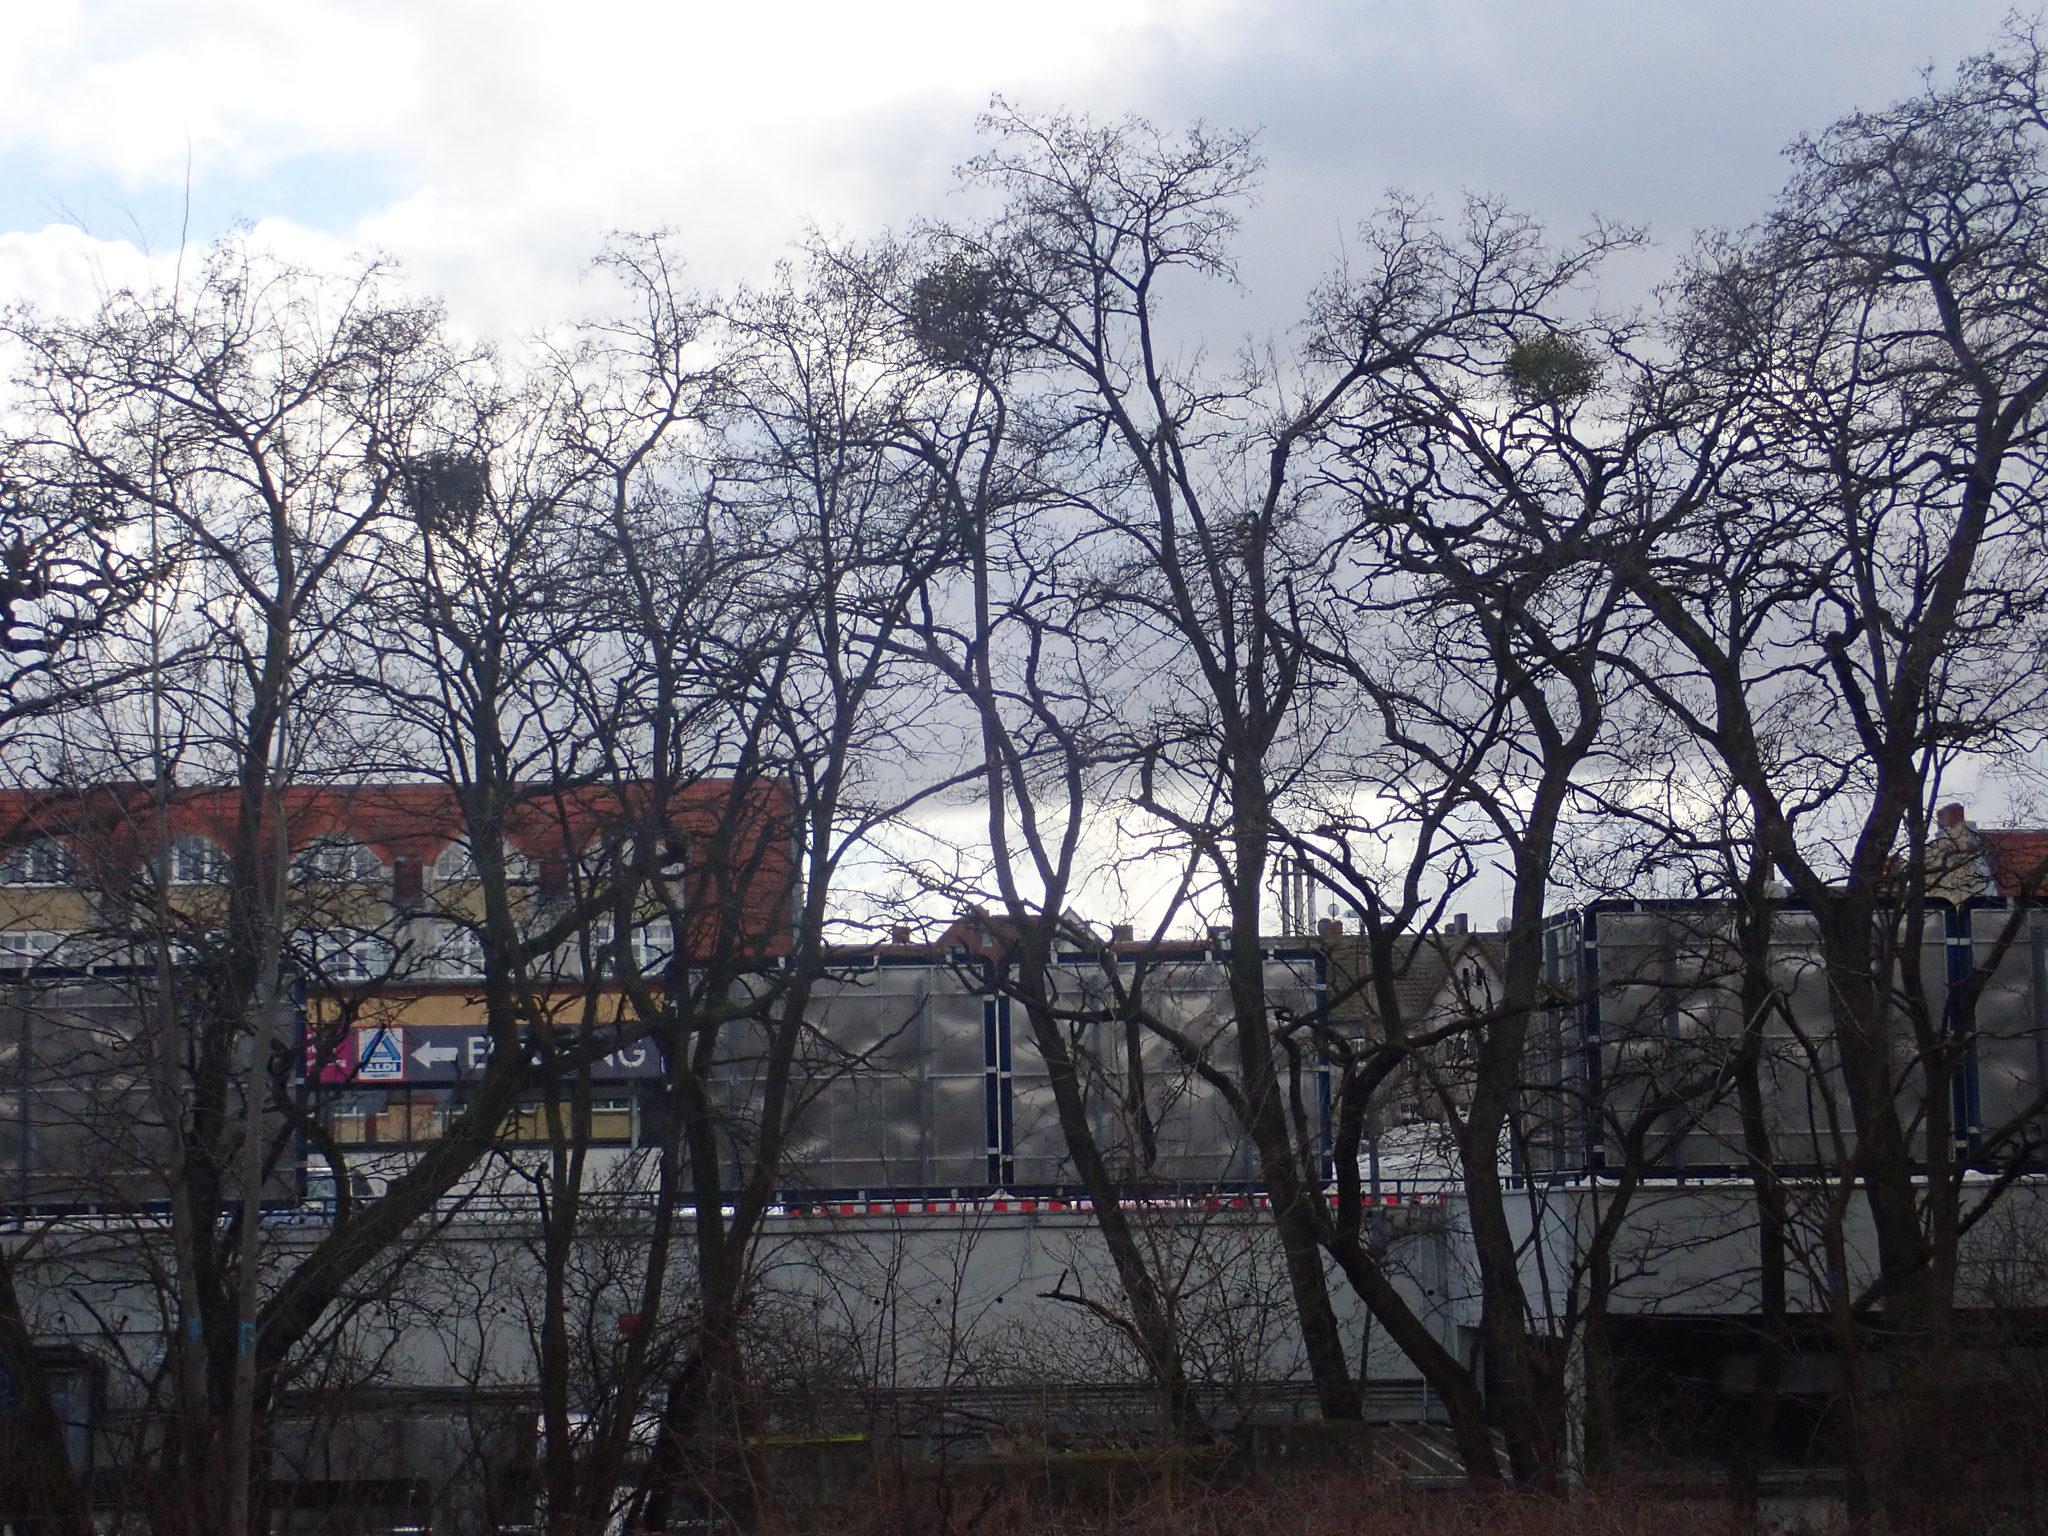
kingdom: Plantae
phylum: Tracheophyta
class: Magnoliopsida
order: Santalales
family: Viscaceae
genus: Viscum
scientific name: Viscum album
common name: Mistletoe
